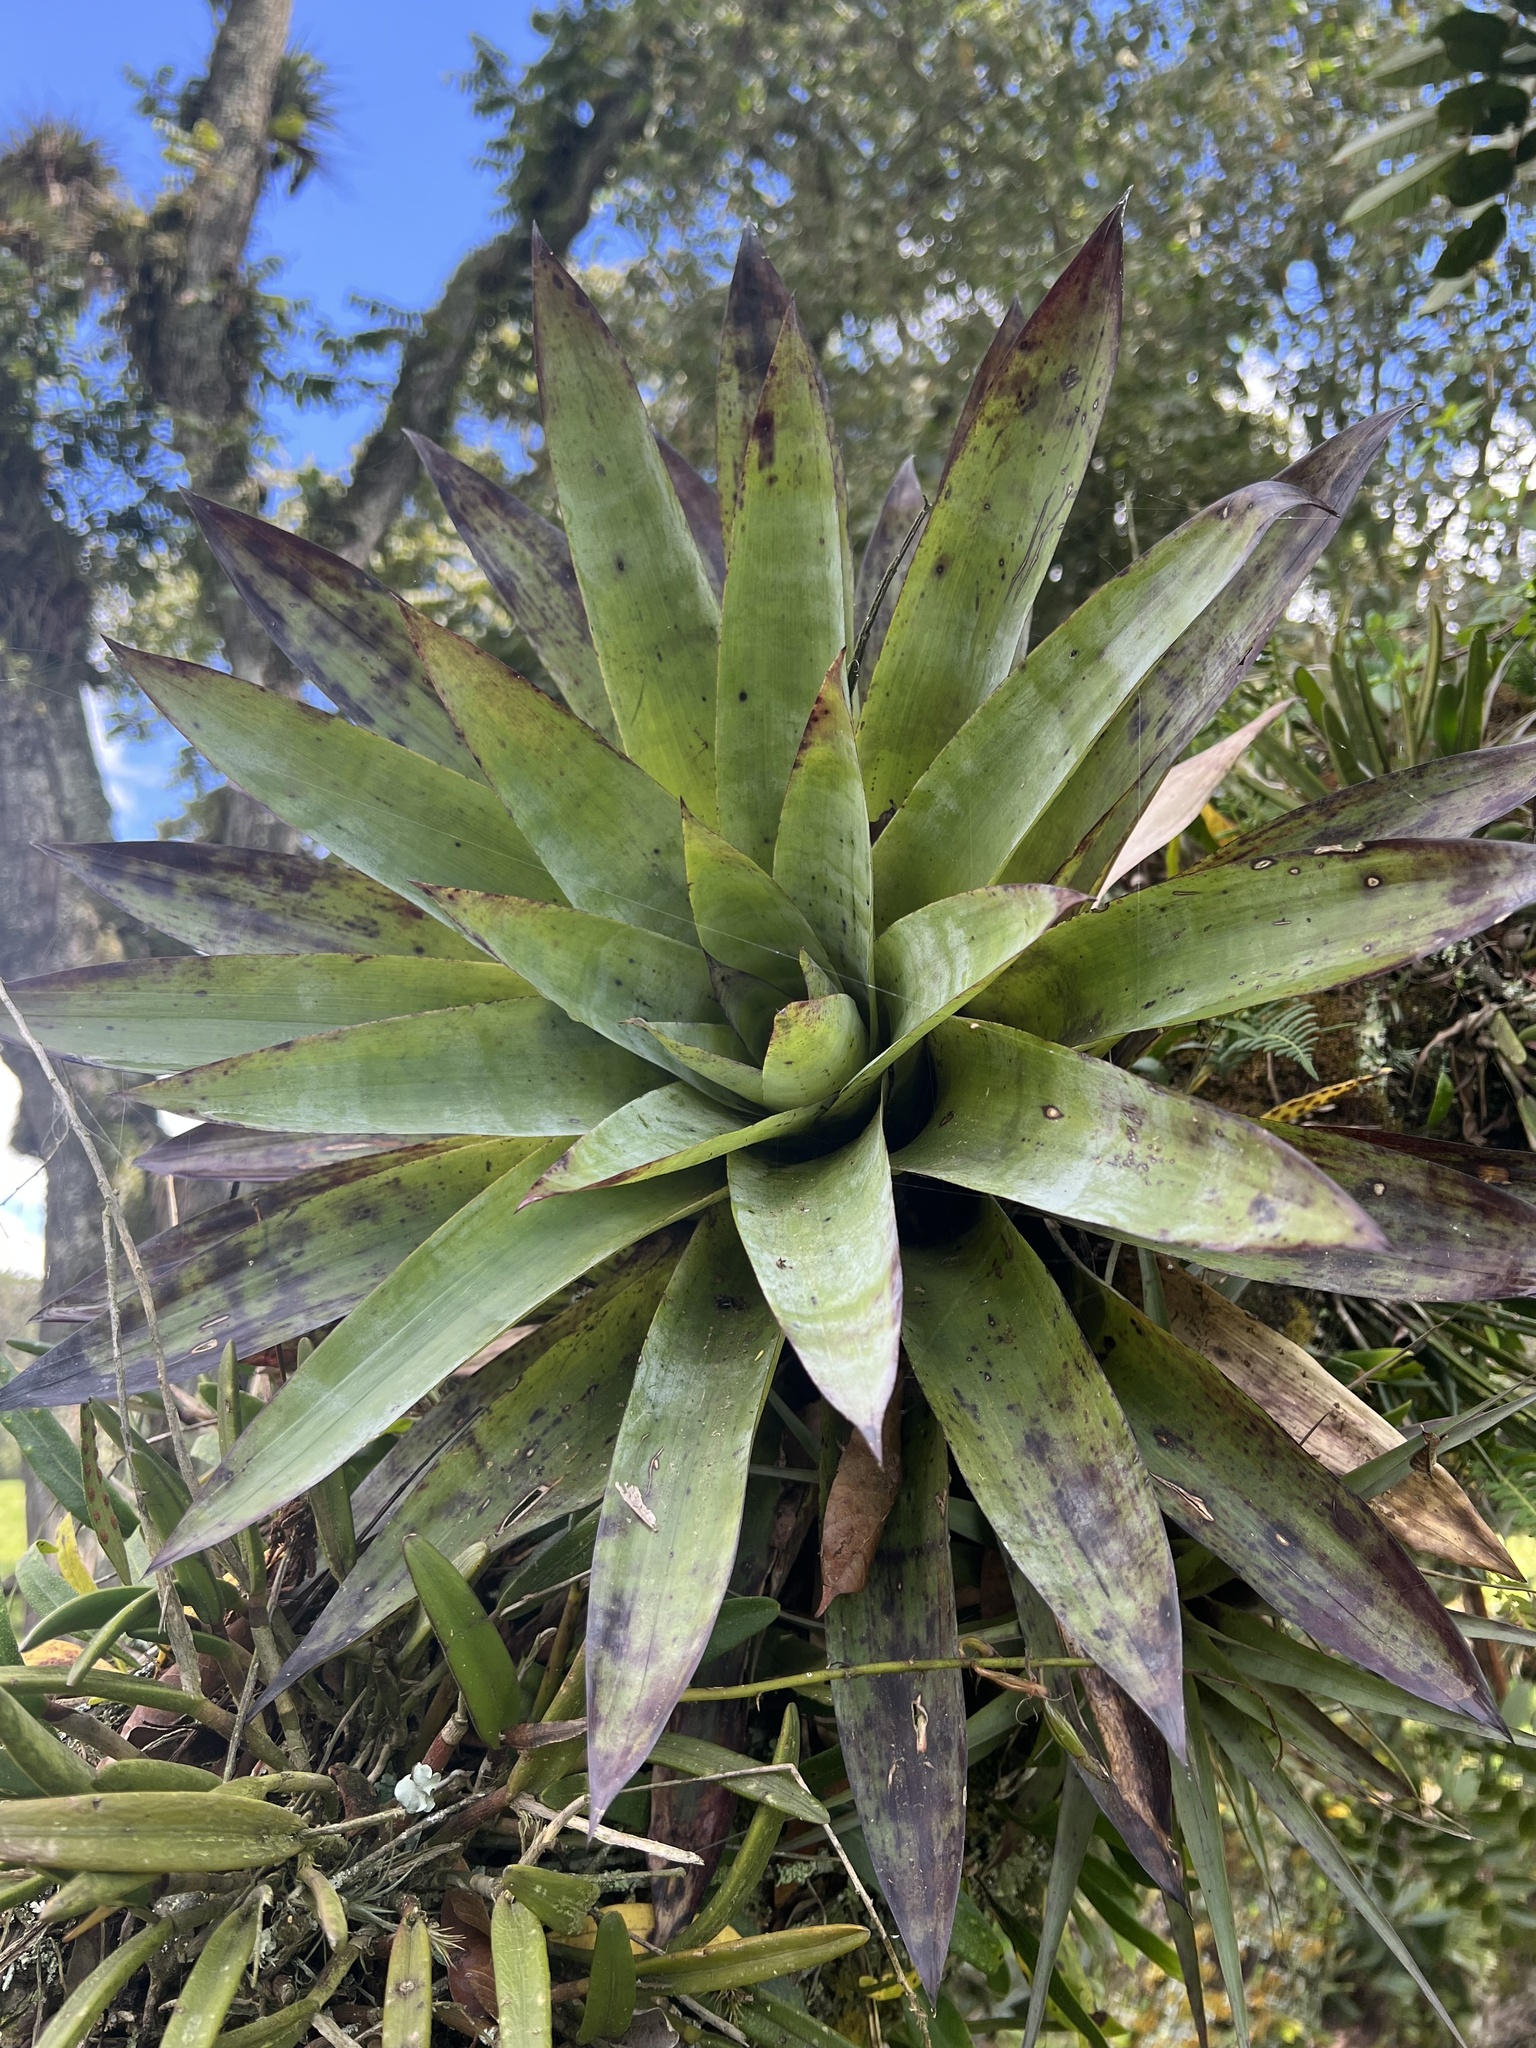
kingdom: Plantae
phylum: Tracheophyta
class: Liliopsida
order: Poales
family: Bromeliaceae
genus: Tillandsia
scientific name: Tillandsia clavigera
